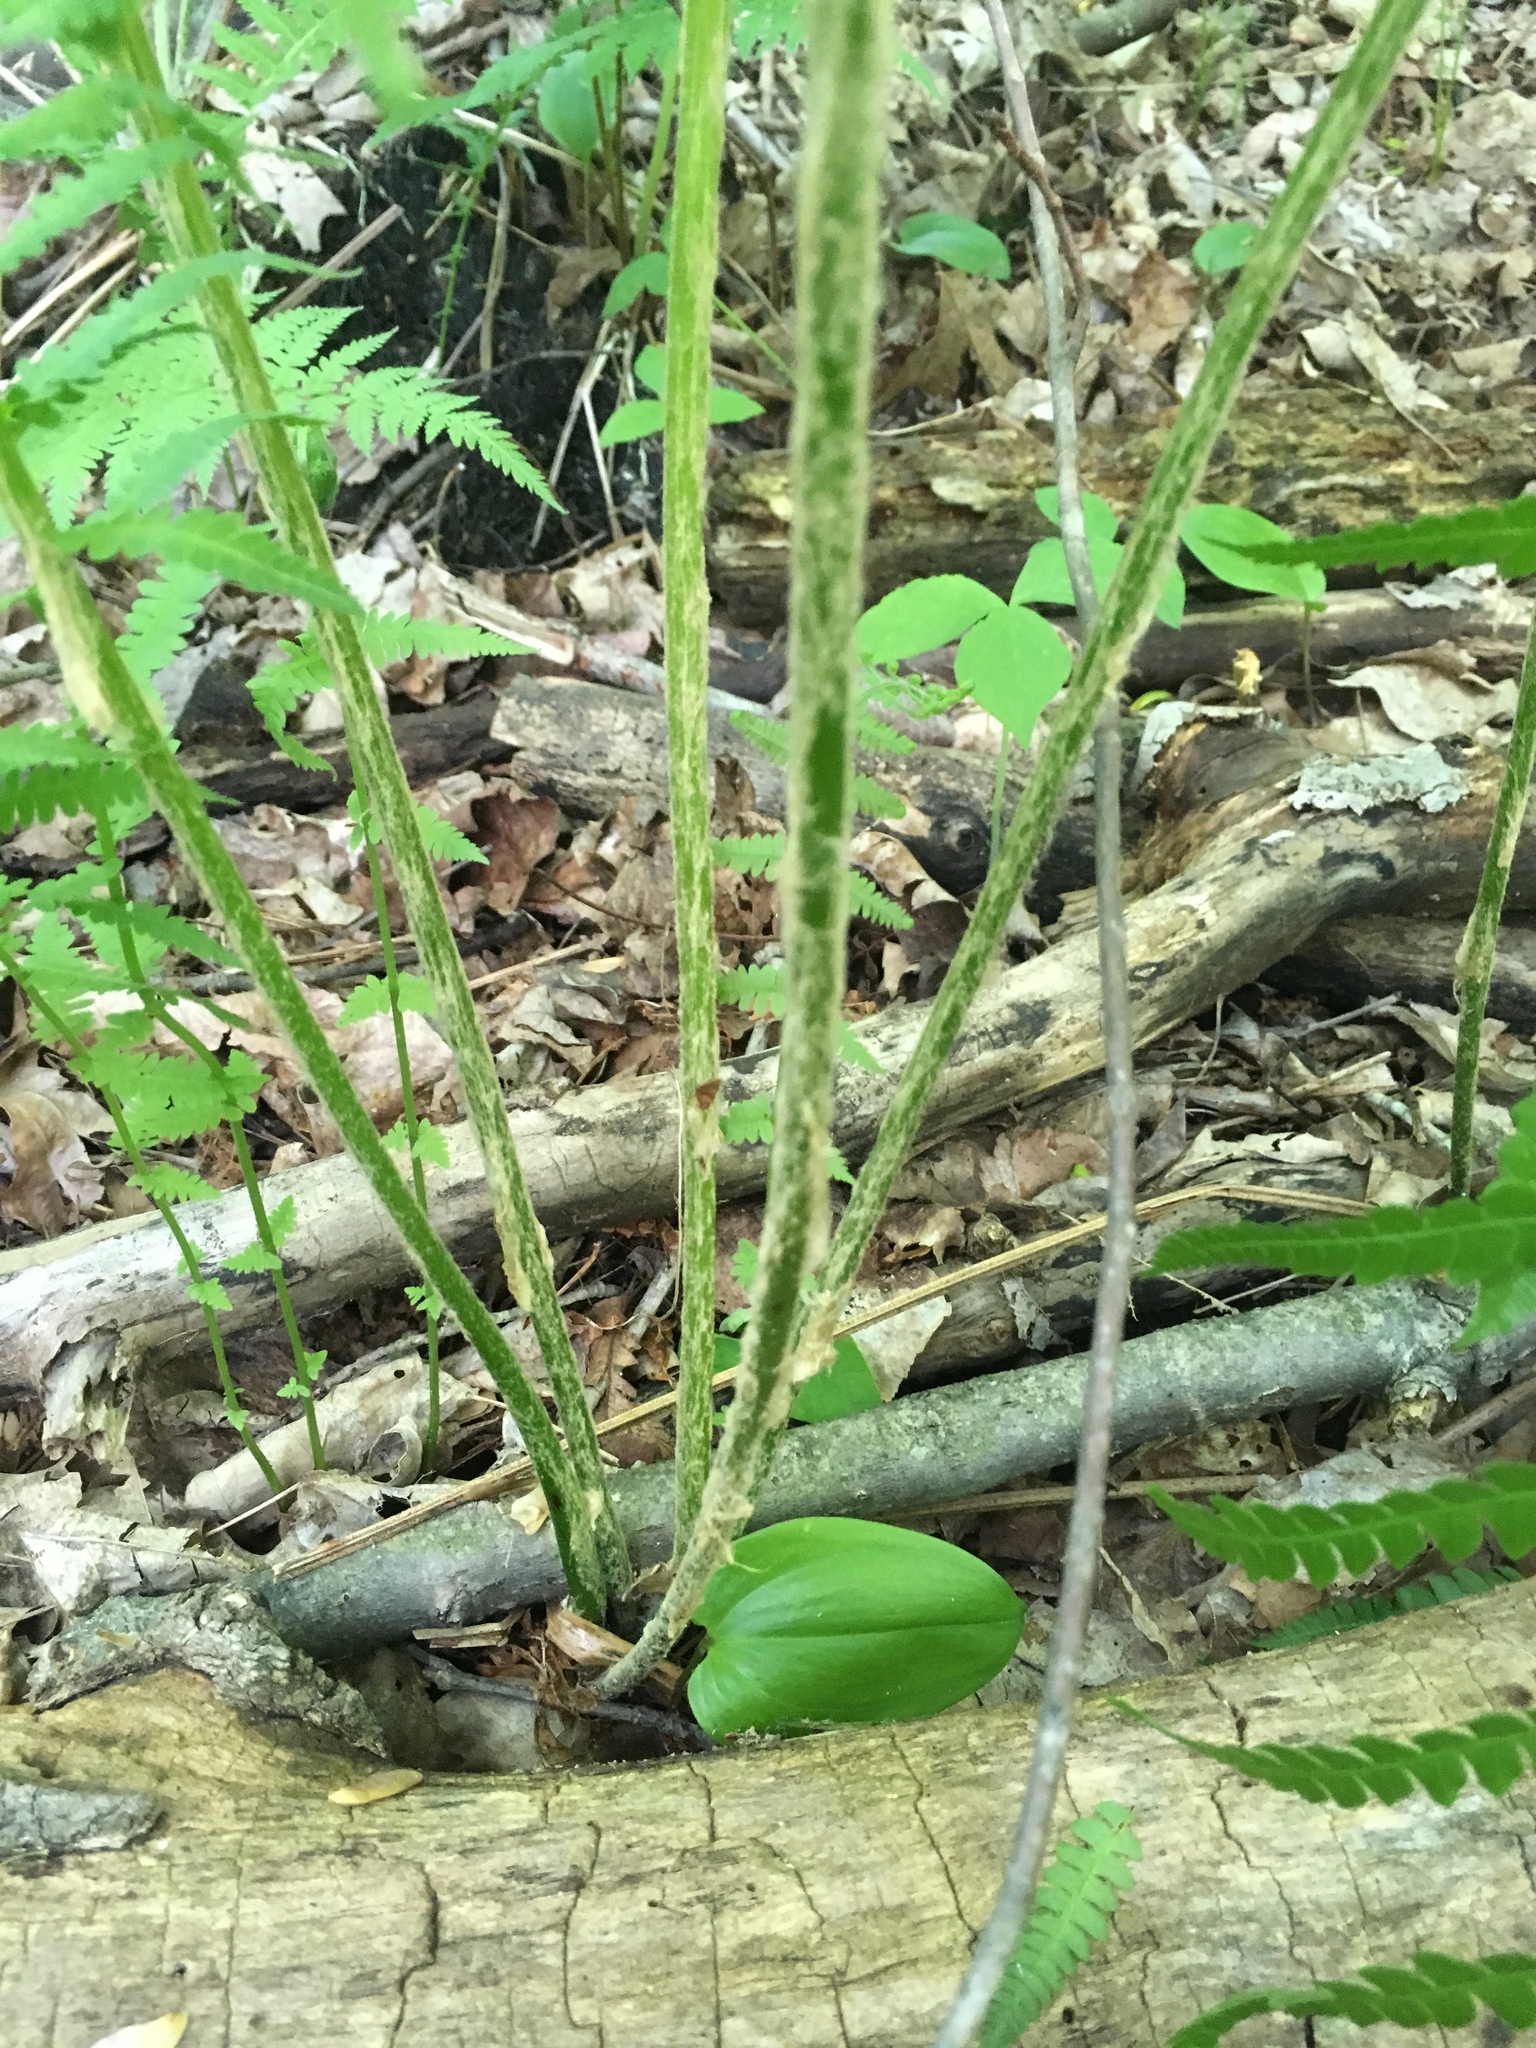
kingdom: Plantae
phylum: Tracheophyta
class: Polypodiopsida
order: Osmundales
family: Osmundaceae
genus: Osmundastrum
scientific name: Osmundastrum cinnamomeum
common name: Cinnamon fern
